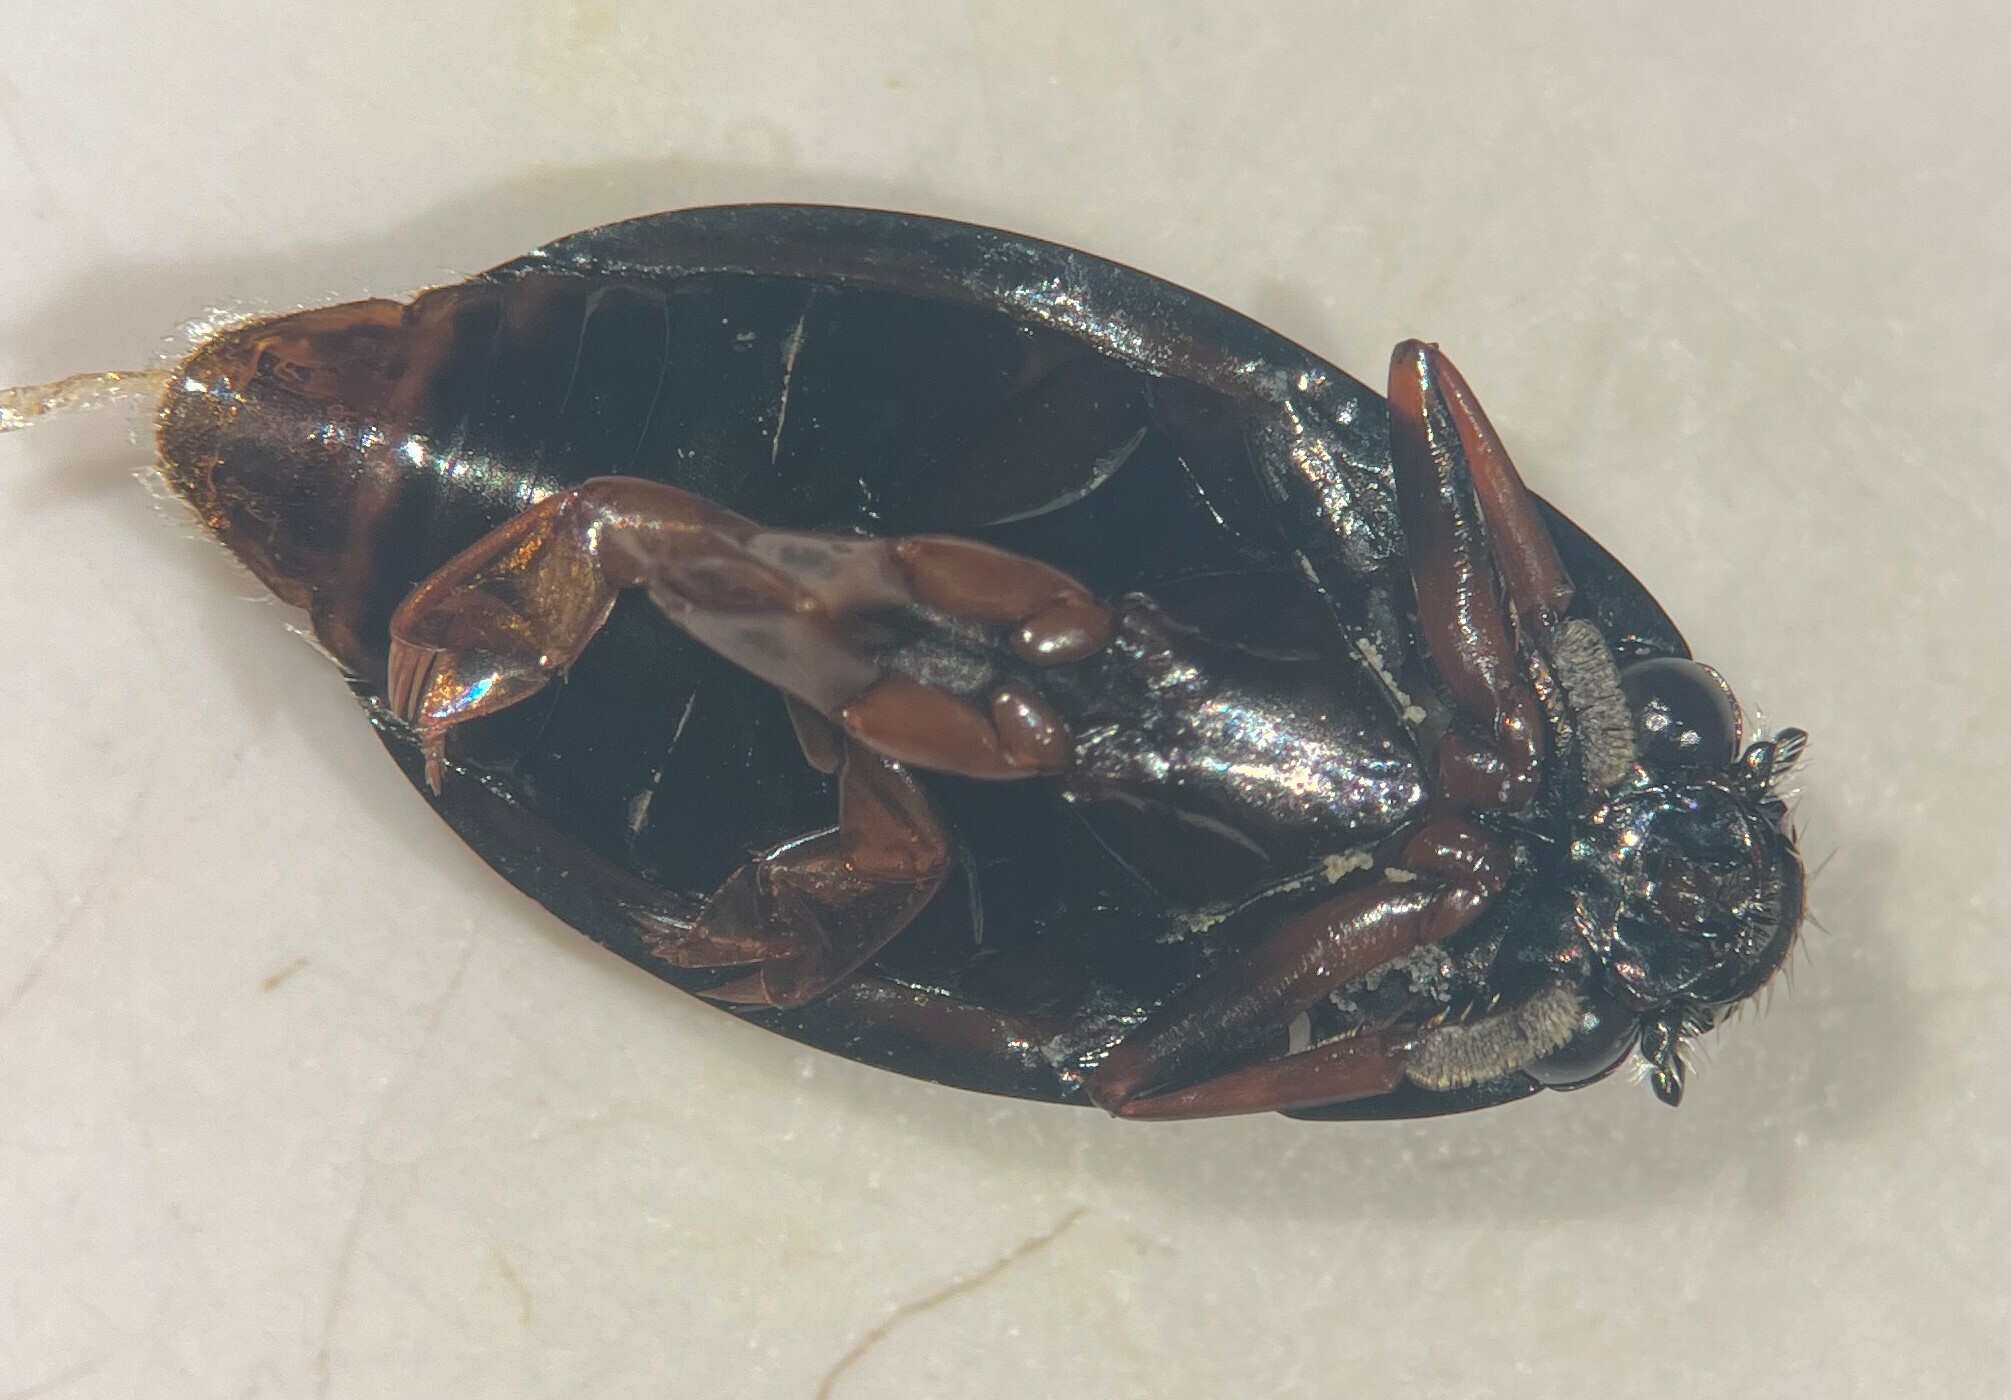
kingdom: Animalia
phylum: Arthropoda
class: Insecta
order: Coleoptera
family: Gyrinidae
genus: Dineutus
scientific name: Dineutus hornii
